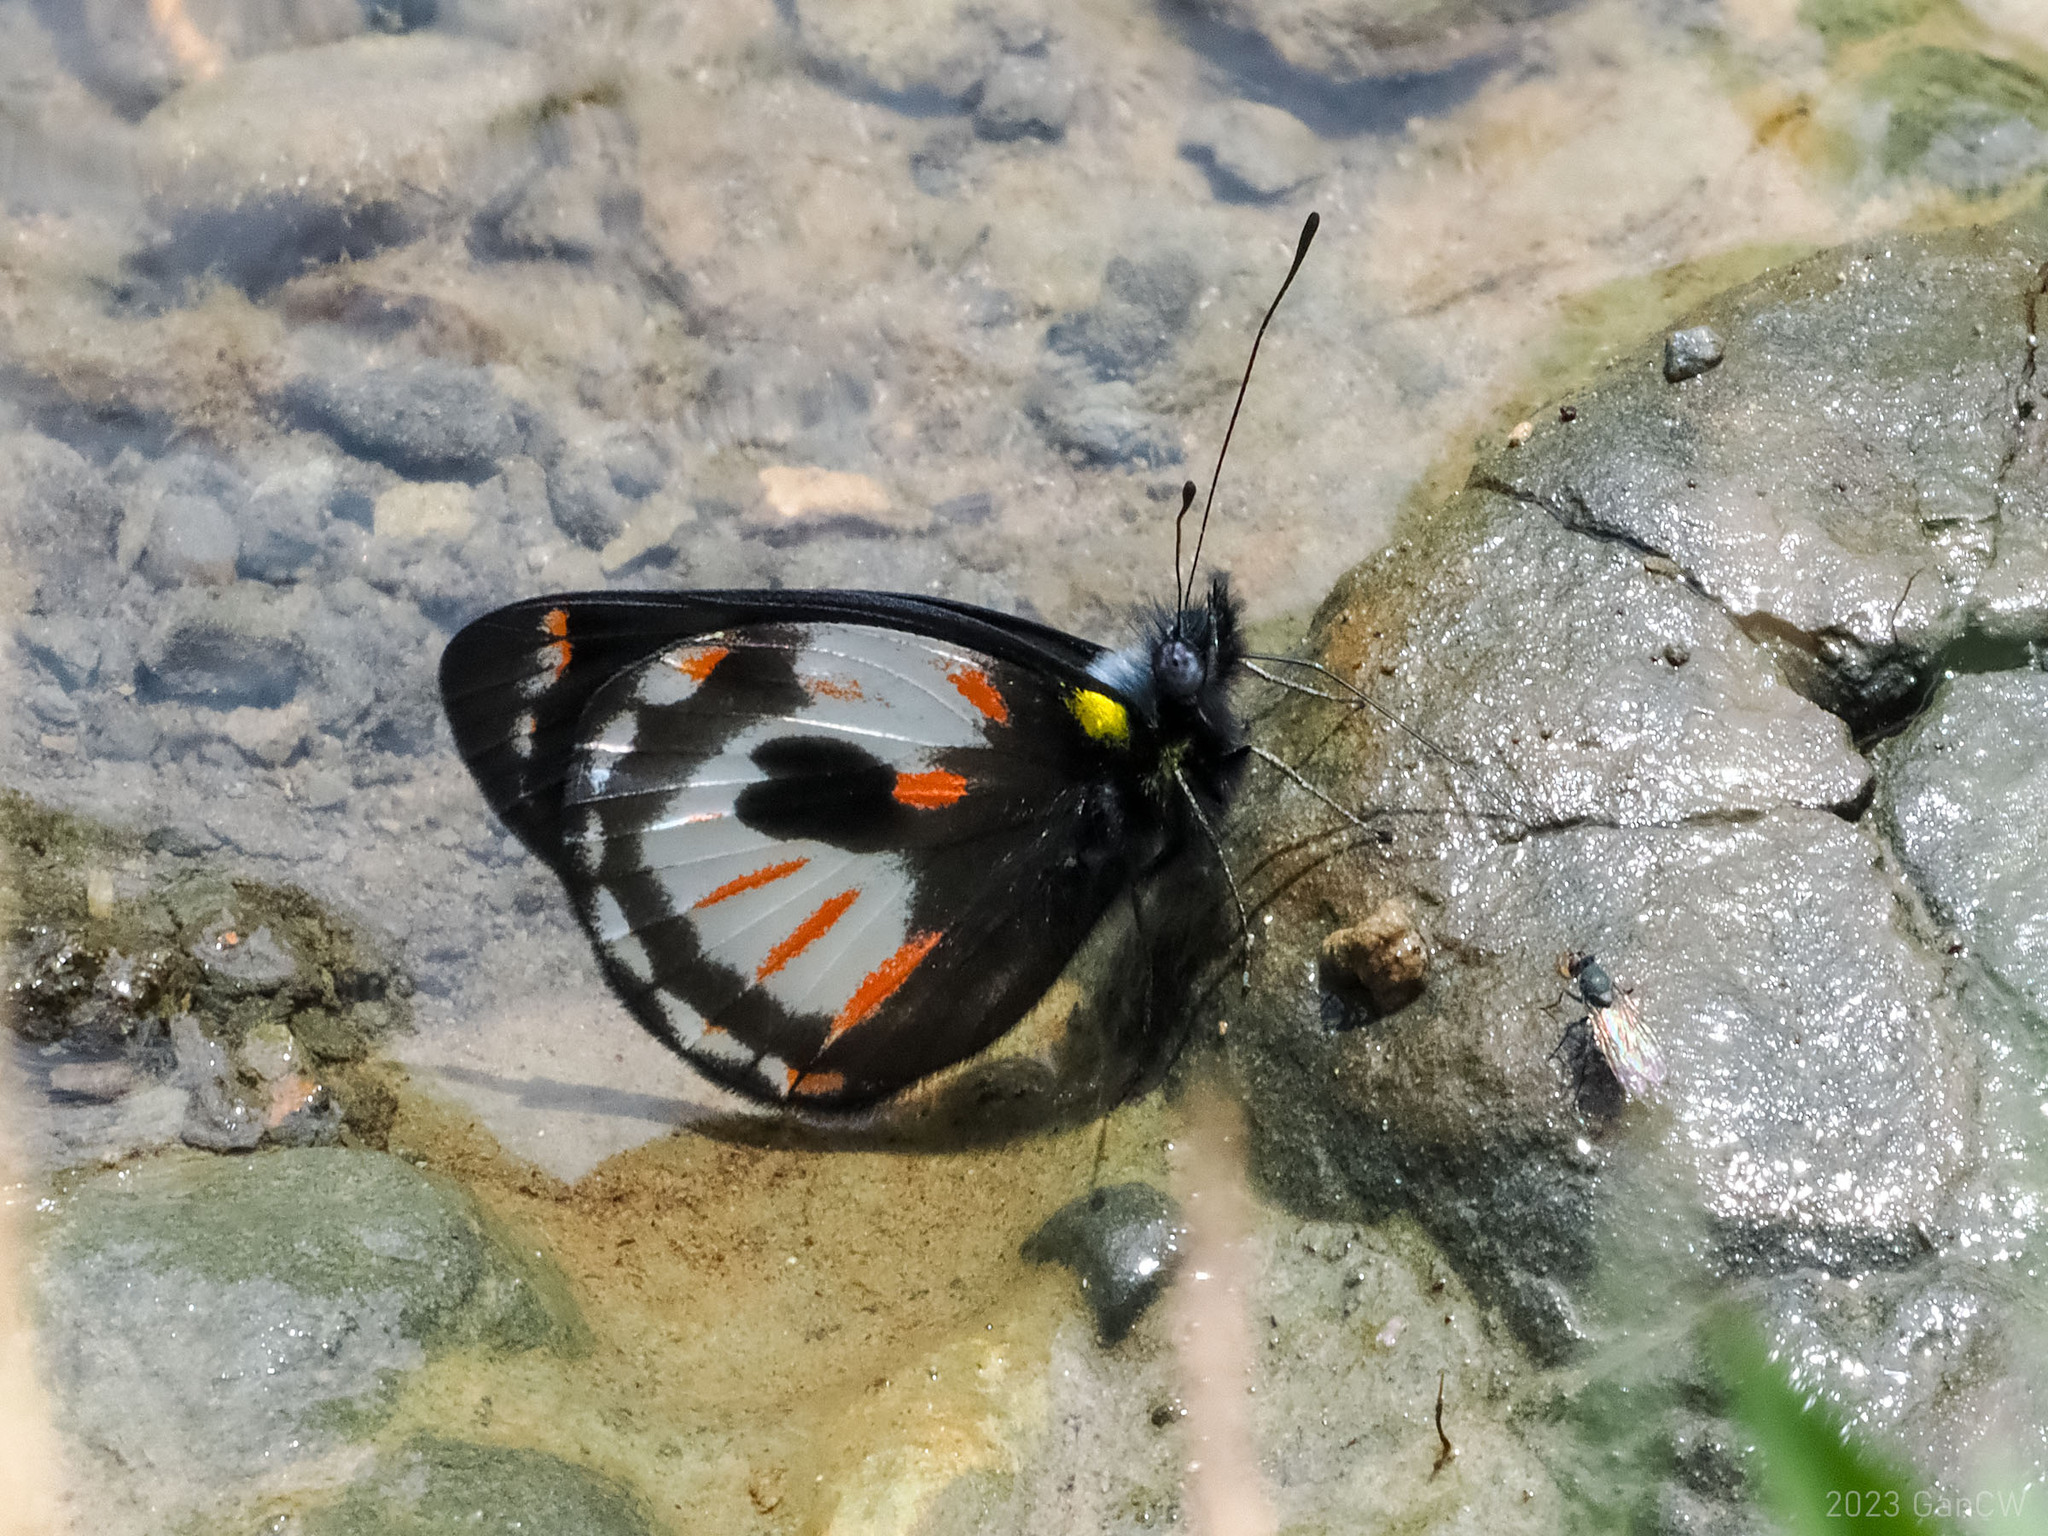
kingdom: Animalia
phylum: Arthropoda
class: Insecta
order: Lepidoptera
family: Pieridae
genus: Delias
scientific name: Delias argentata
